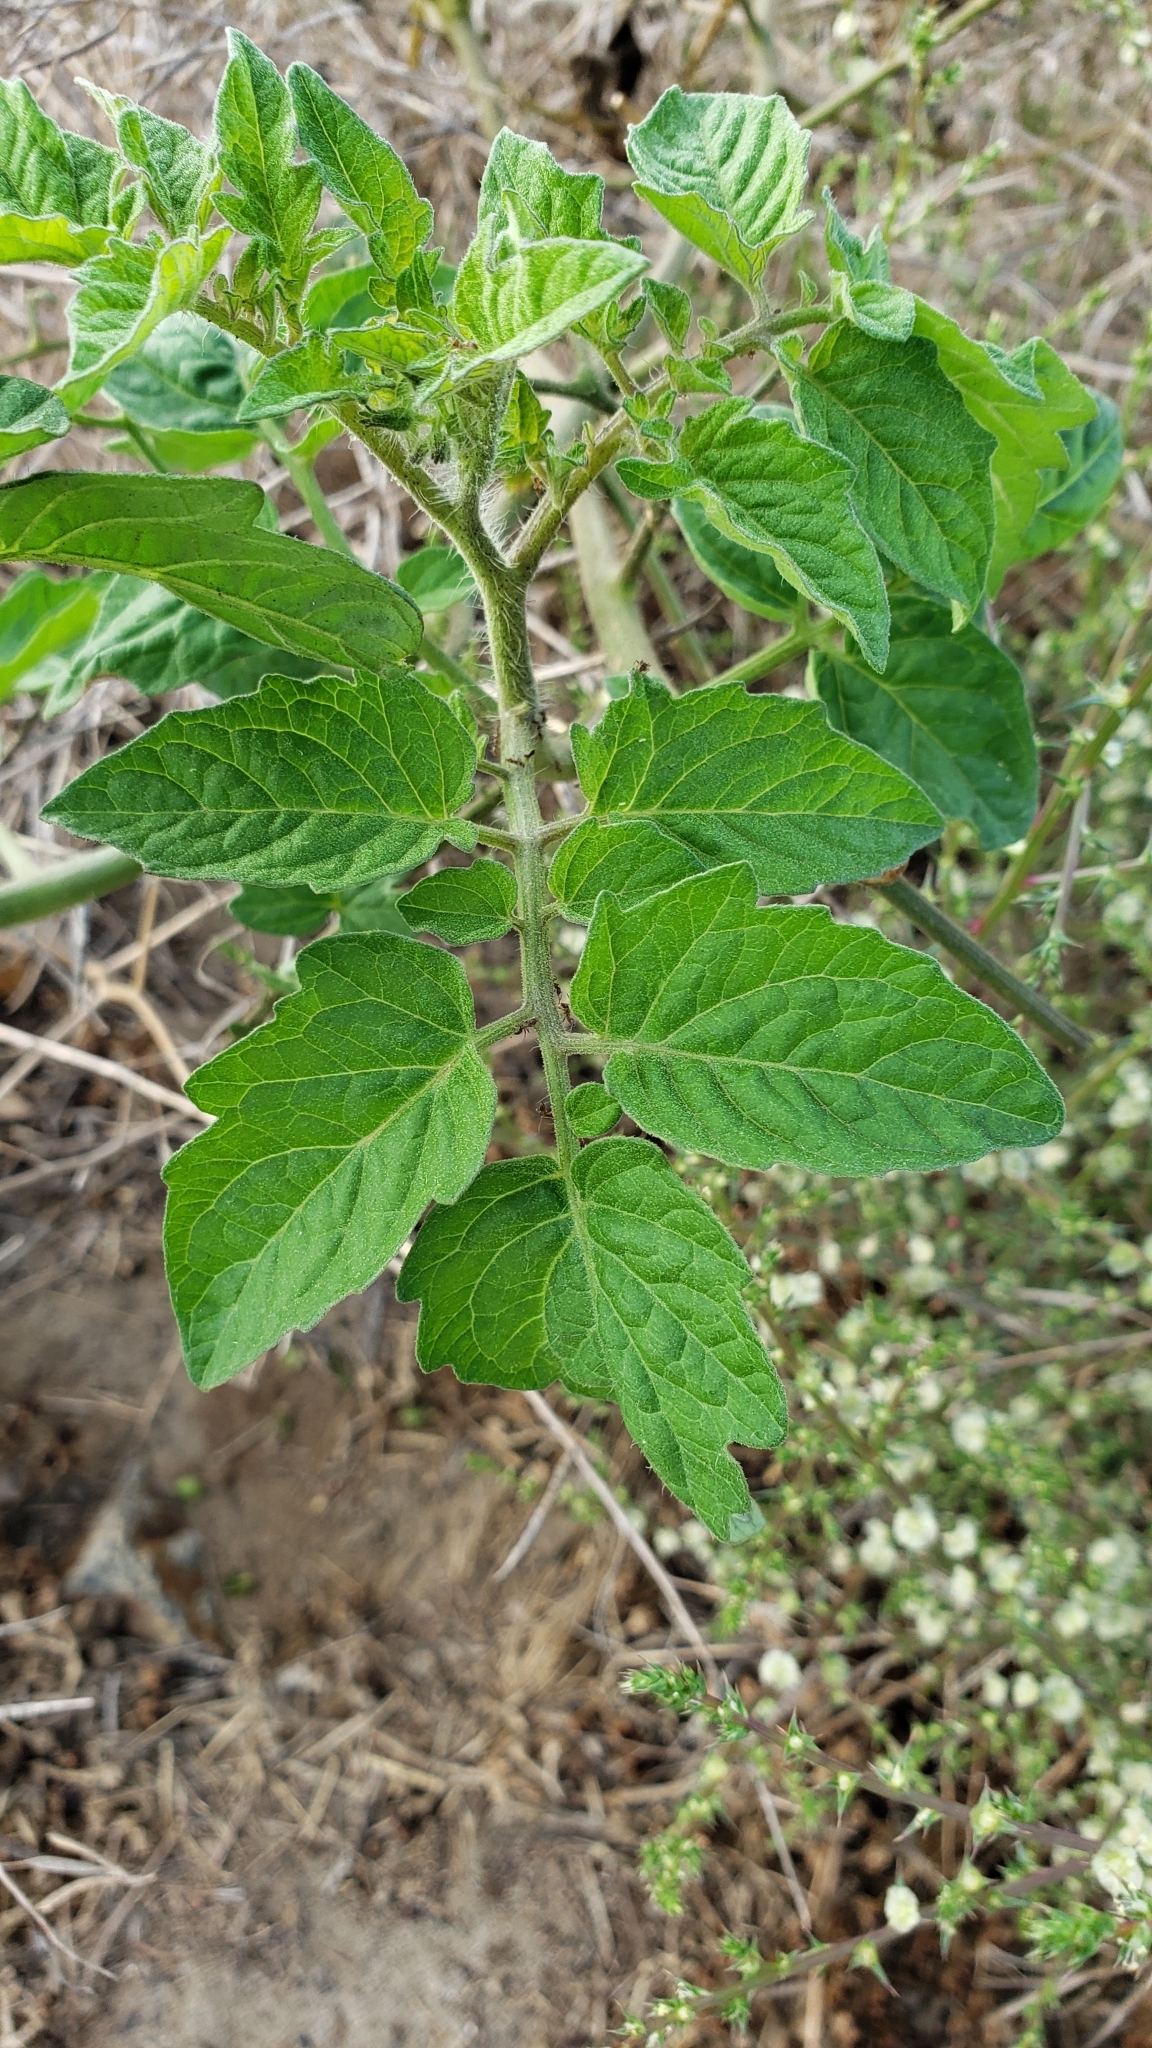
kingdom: Plantae
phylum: Tracheophyta
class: Magnoliopsida
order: Solanales
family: Solanaceae
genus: Solanum
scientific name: Solanum lycopersicum
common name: Garden tomato
